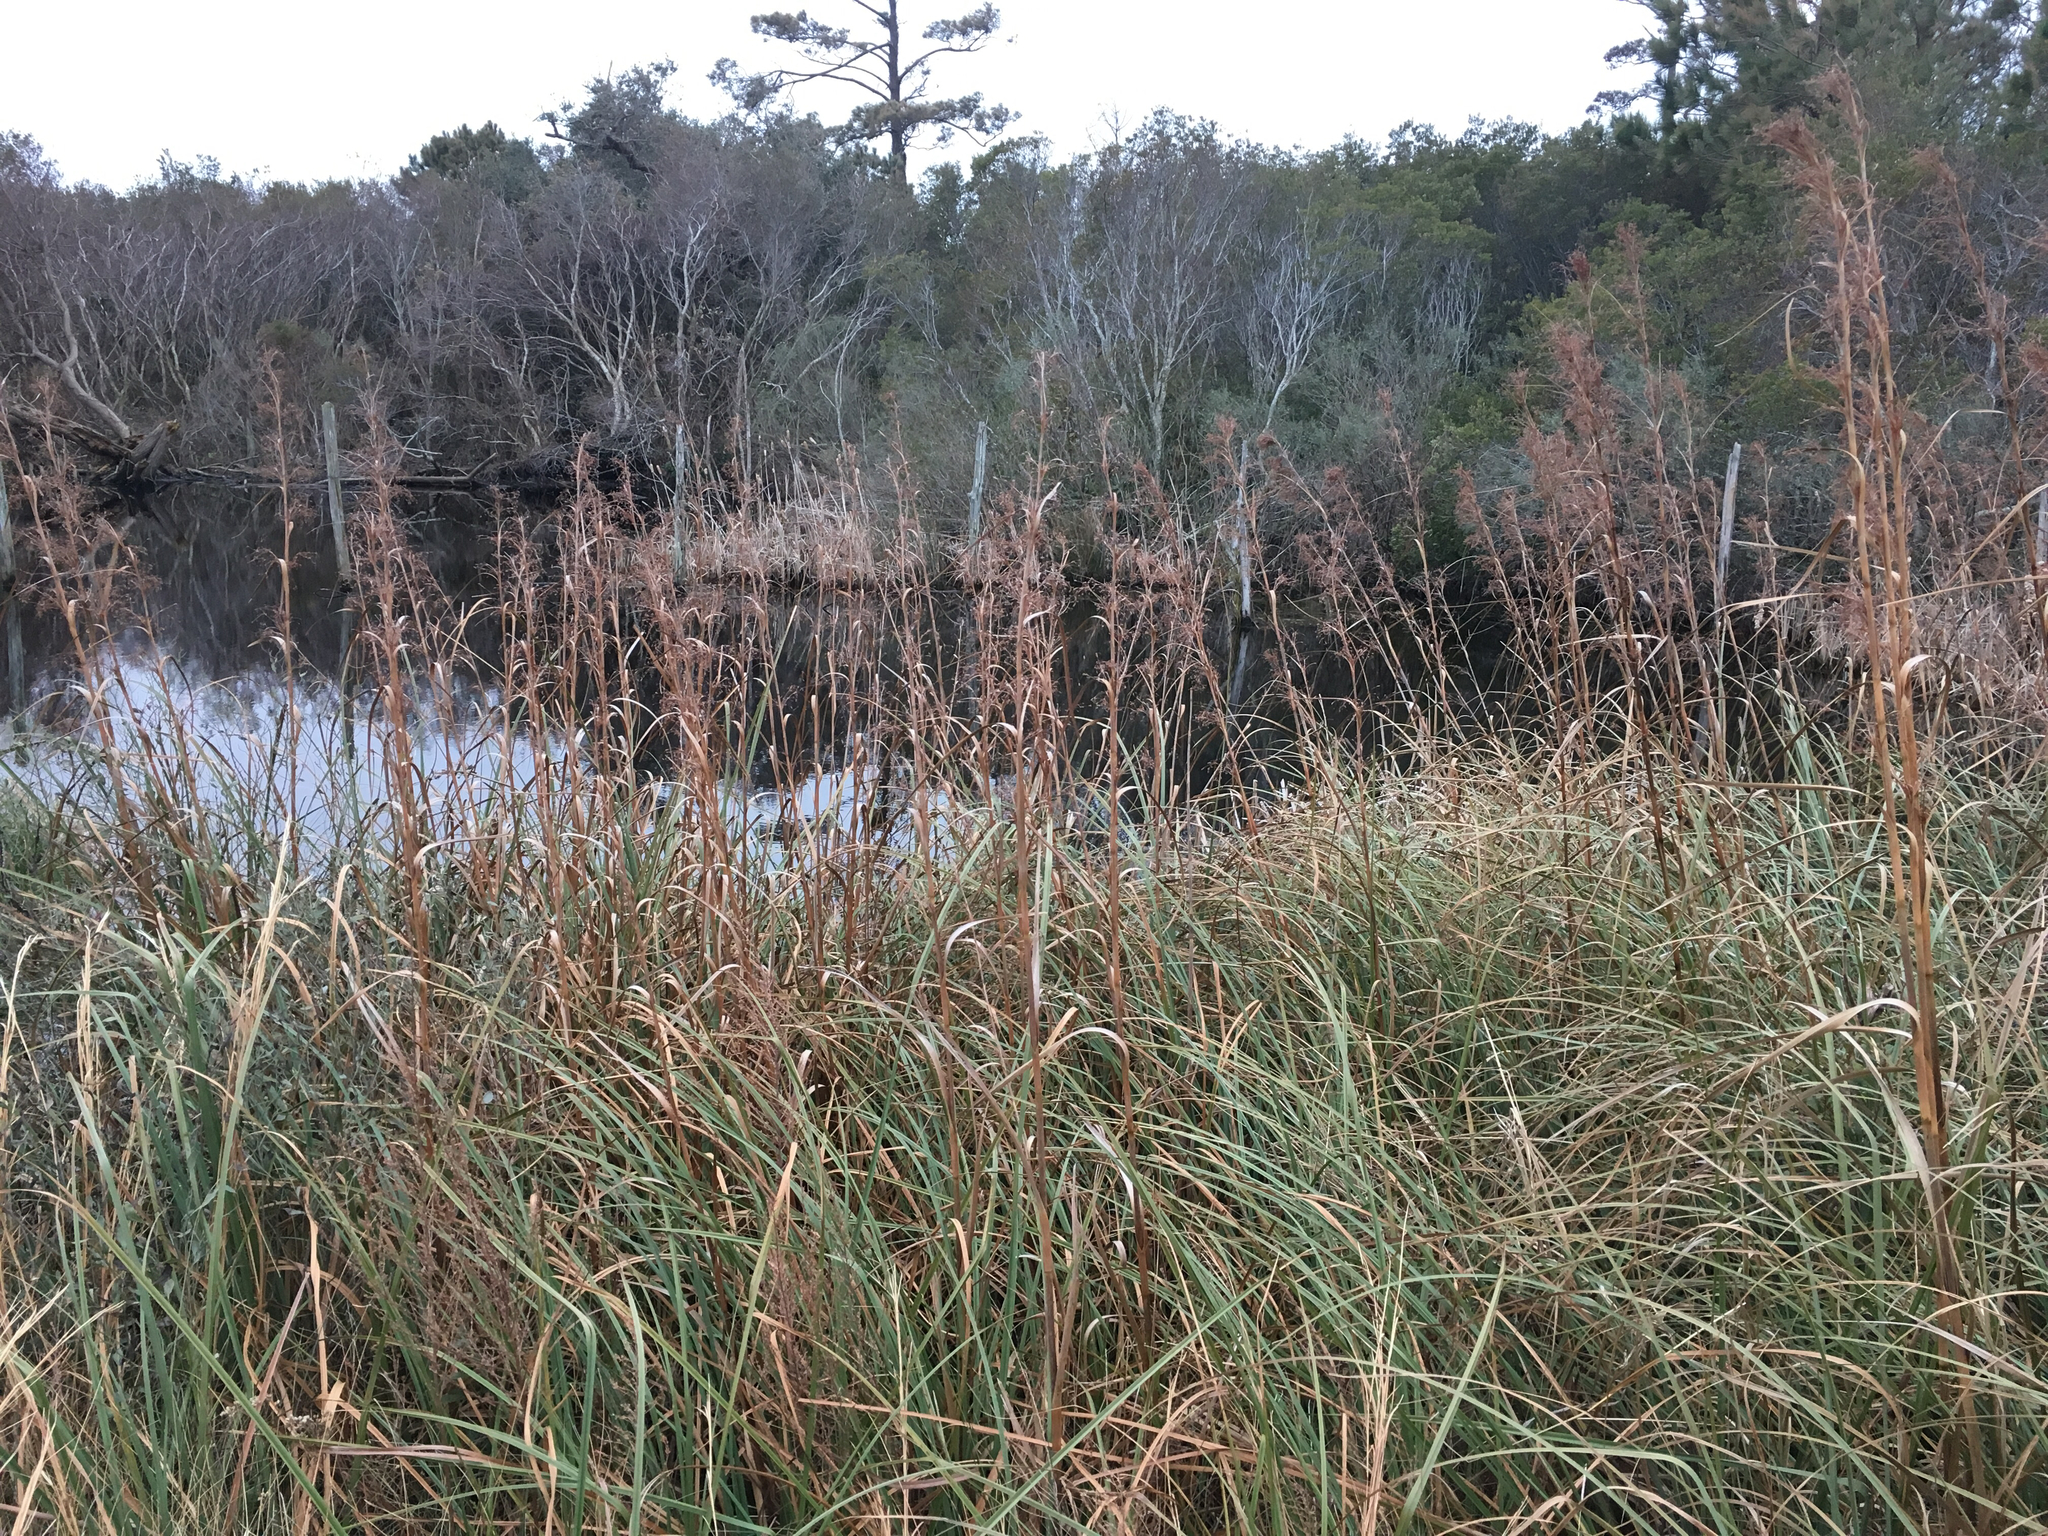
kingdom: Plantae
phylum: Tracheophyta
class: Liliopsida
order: Poales
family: Cyperaceae
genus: Cladium
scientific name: Cladium mariscus
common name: Great fen-sedge
